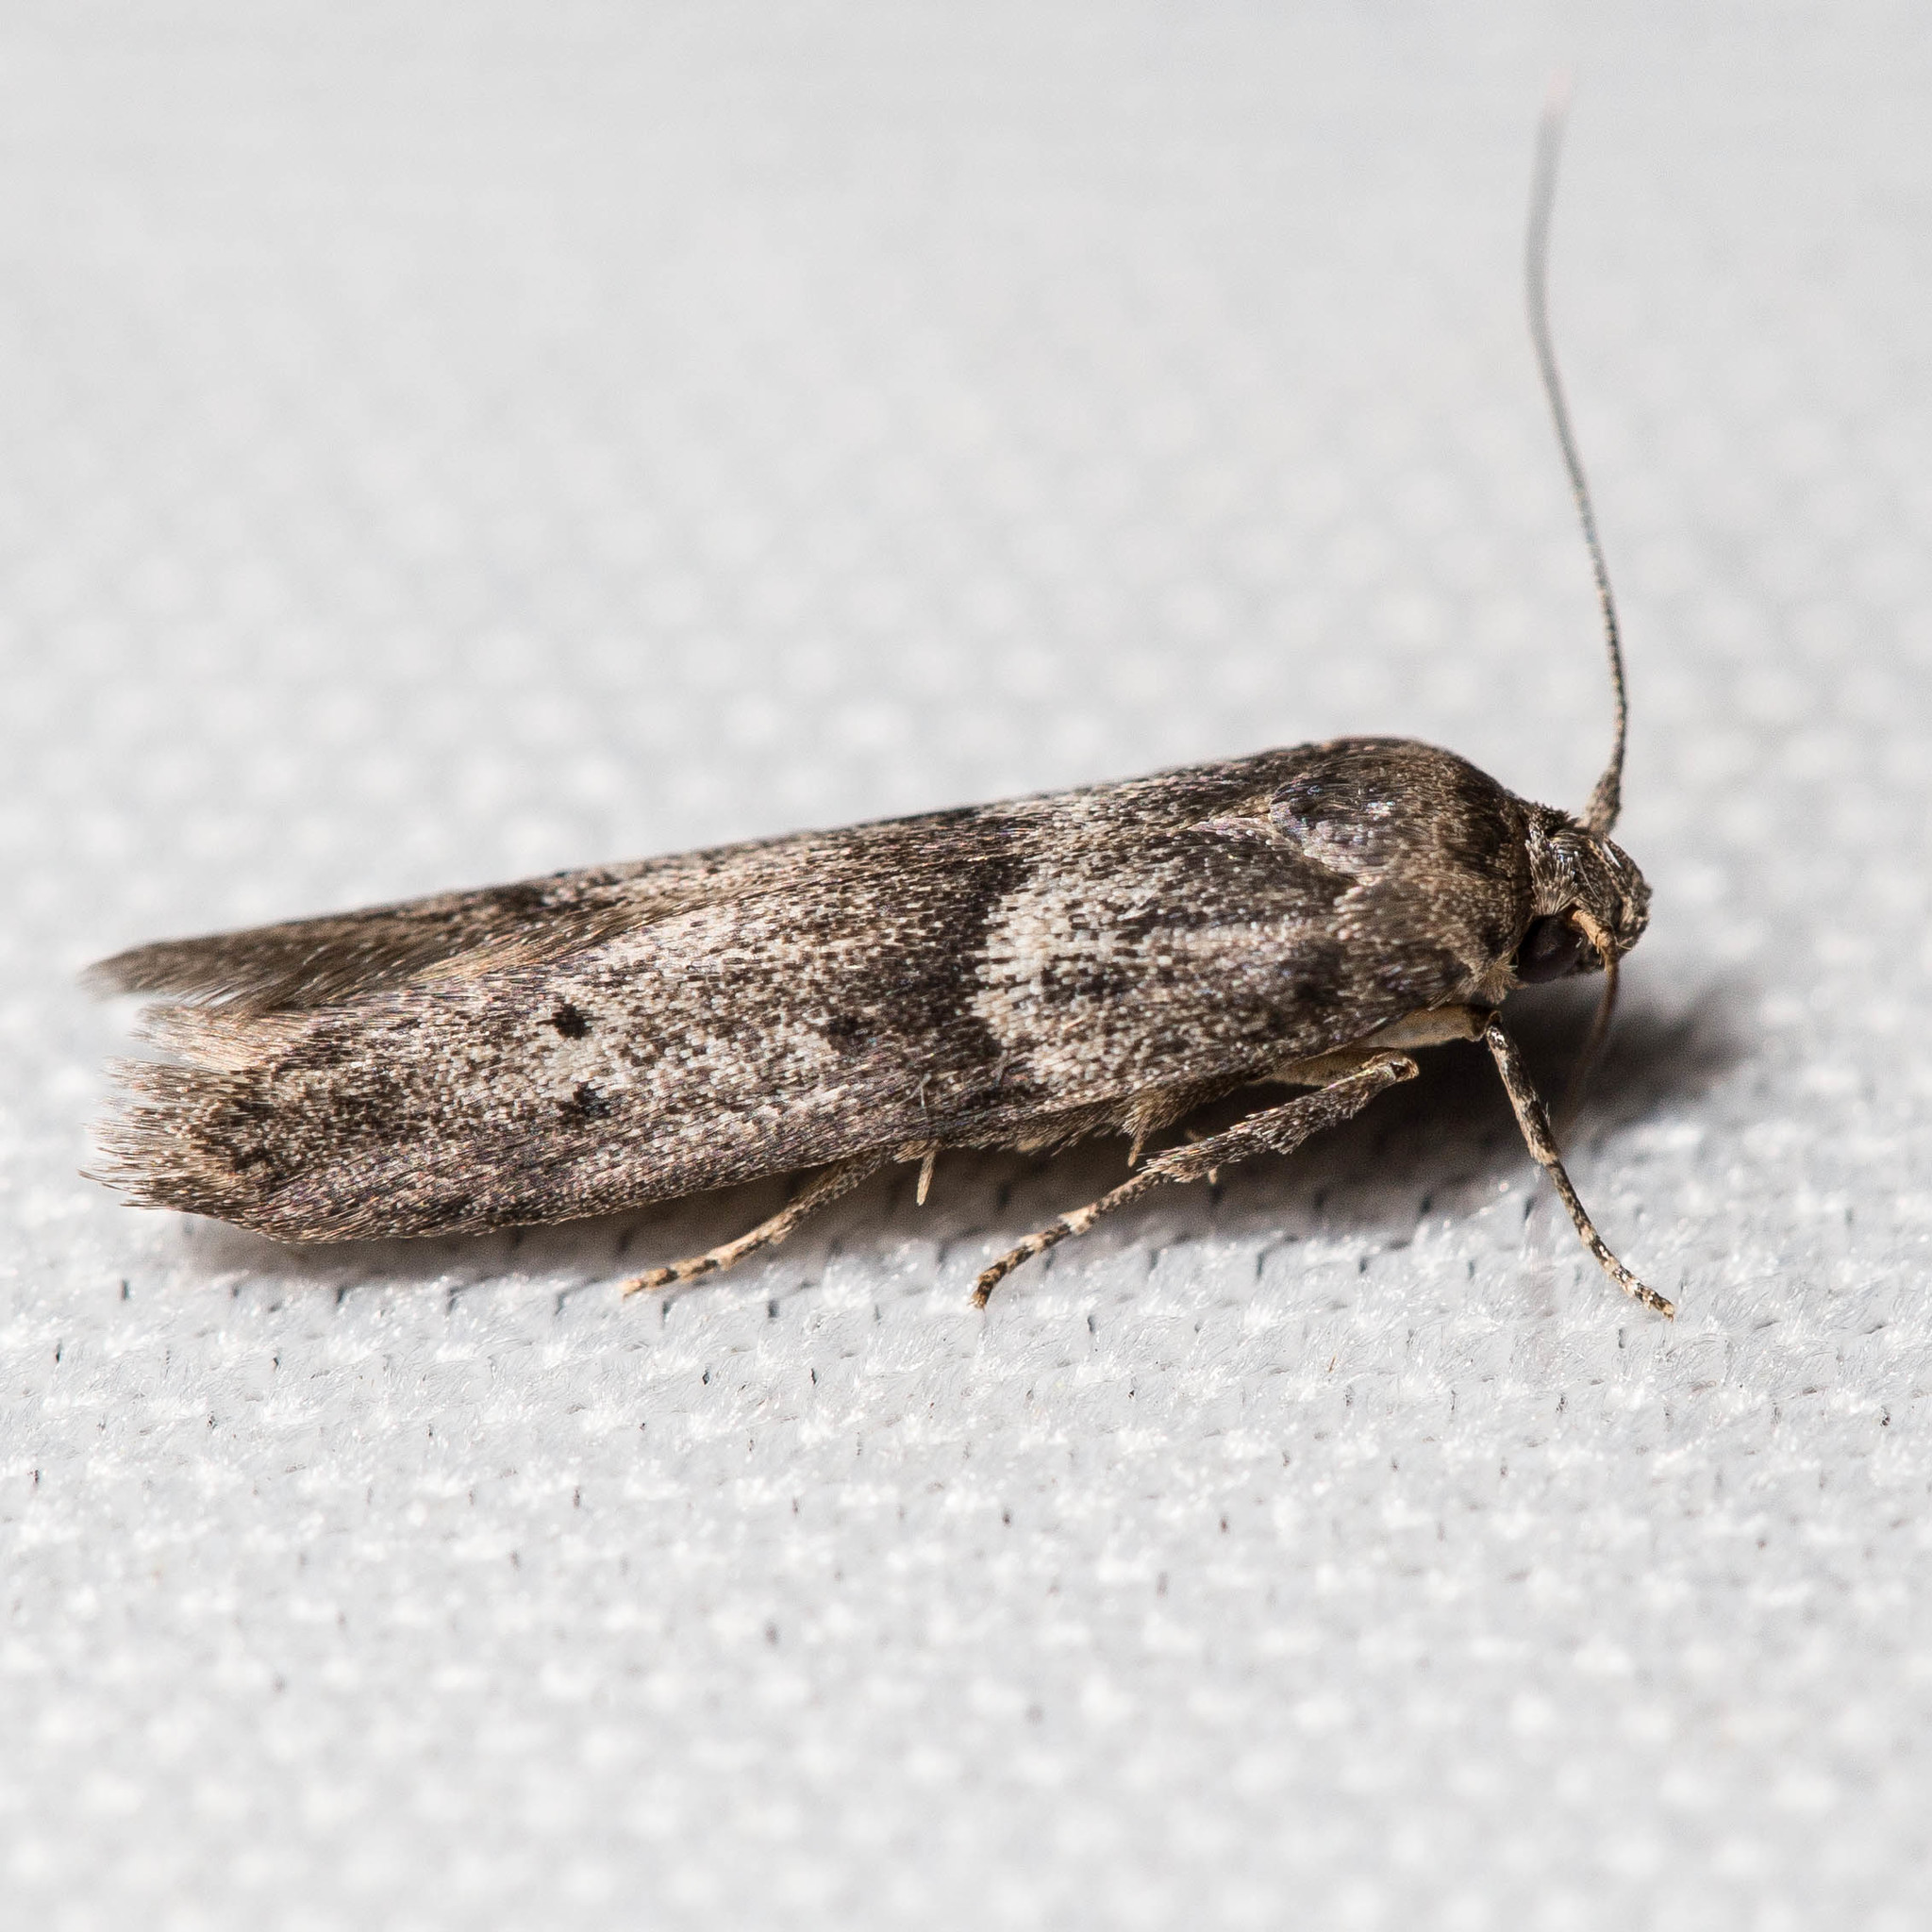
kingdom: Animalia
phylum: Arthropoda
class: Insecta
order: Lepidoptera
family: Blastobasidae
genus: Blastobasis
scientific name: Blastobasis glandulella
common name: Acorn moth
